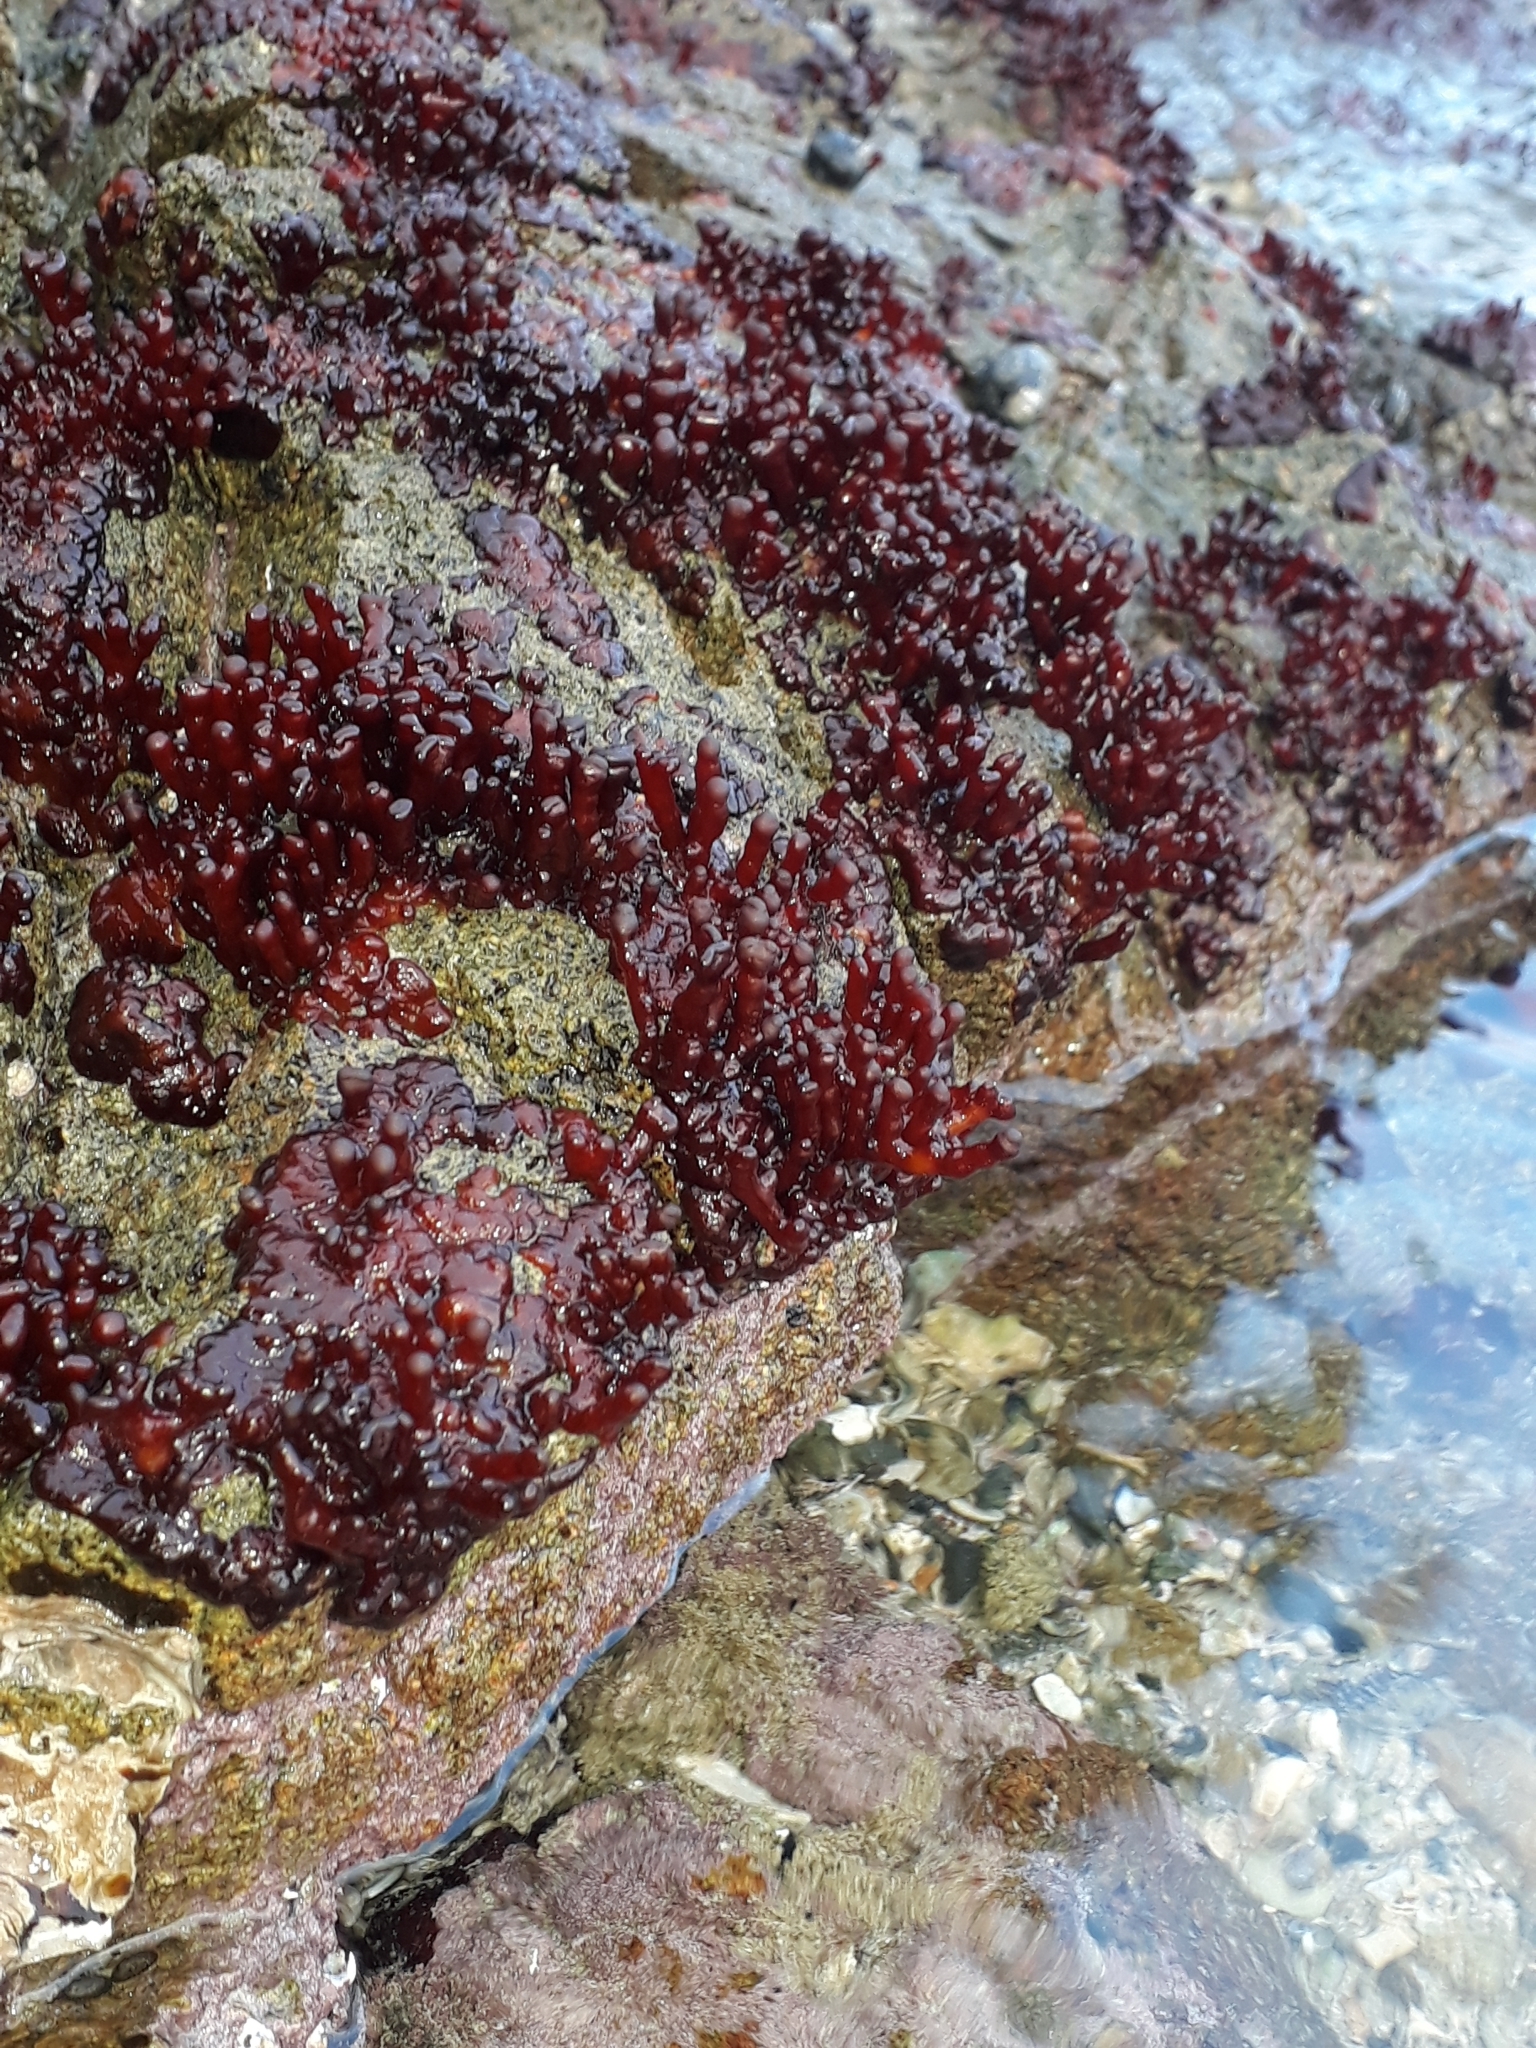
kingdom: Plantae
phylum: Rhodophyta
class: Florideophyceae
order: Hildenbrandiales
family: Hildenbrandiaceae
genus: Apophlaea
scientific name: Apophlaea sinclairii
